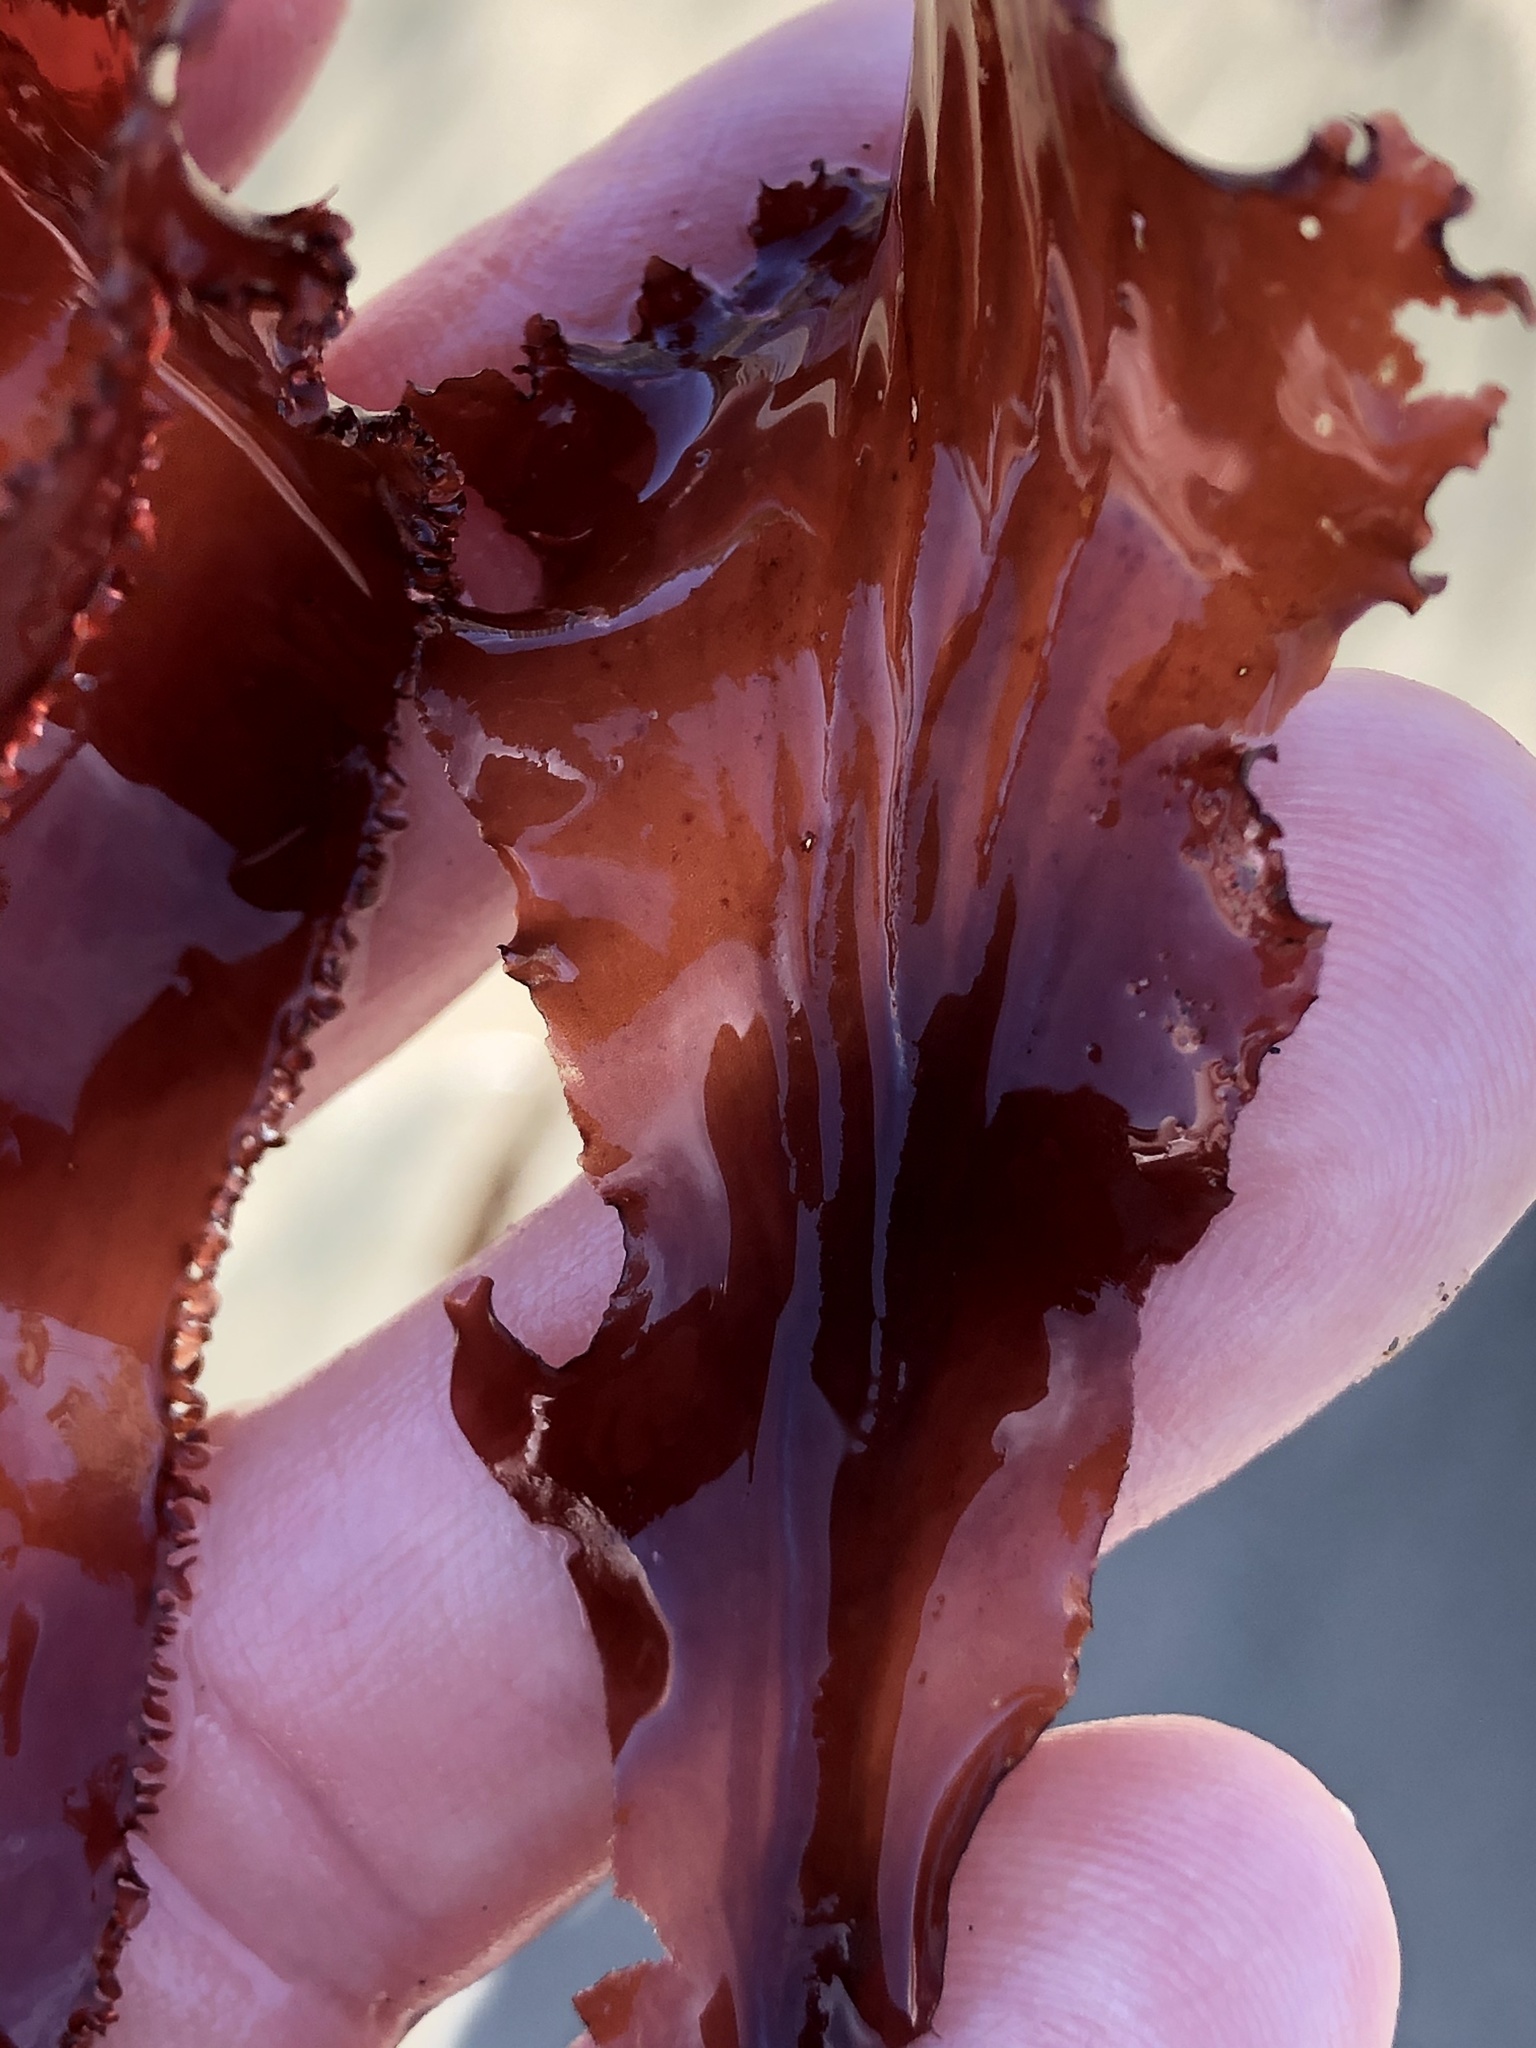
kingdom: Plantae
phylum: Rhodophyta
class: Florideophyceae
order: Ceramiales
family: Delesseriaceae
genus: Cryptopleura
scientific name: Cryptopleura ruprechtiana
